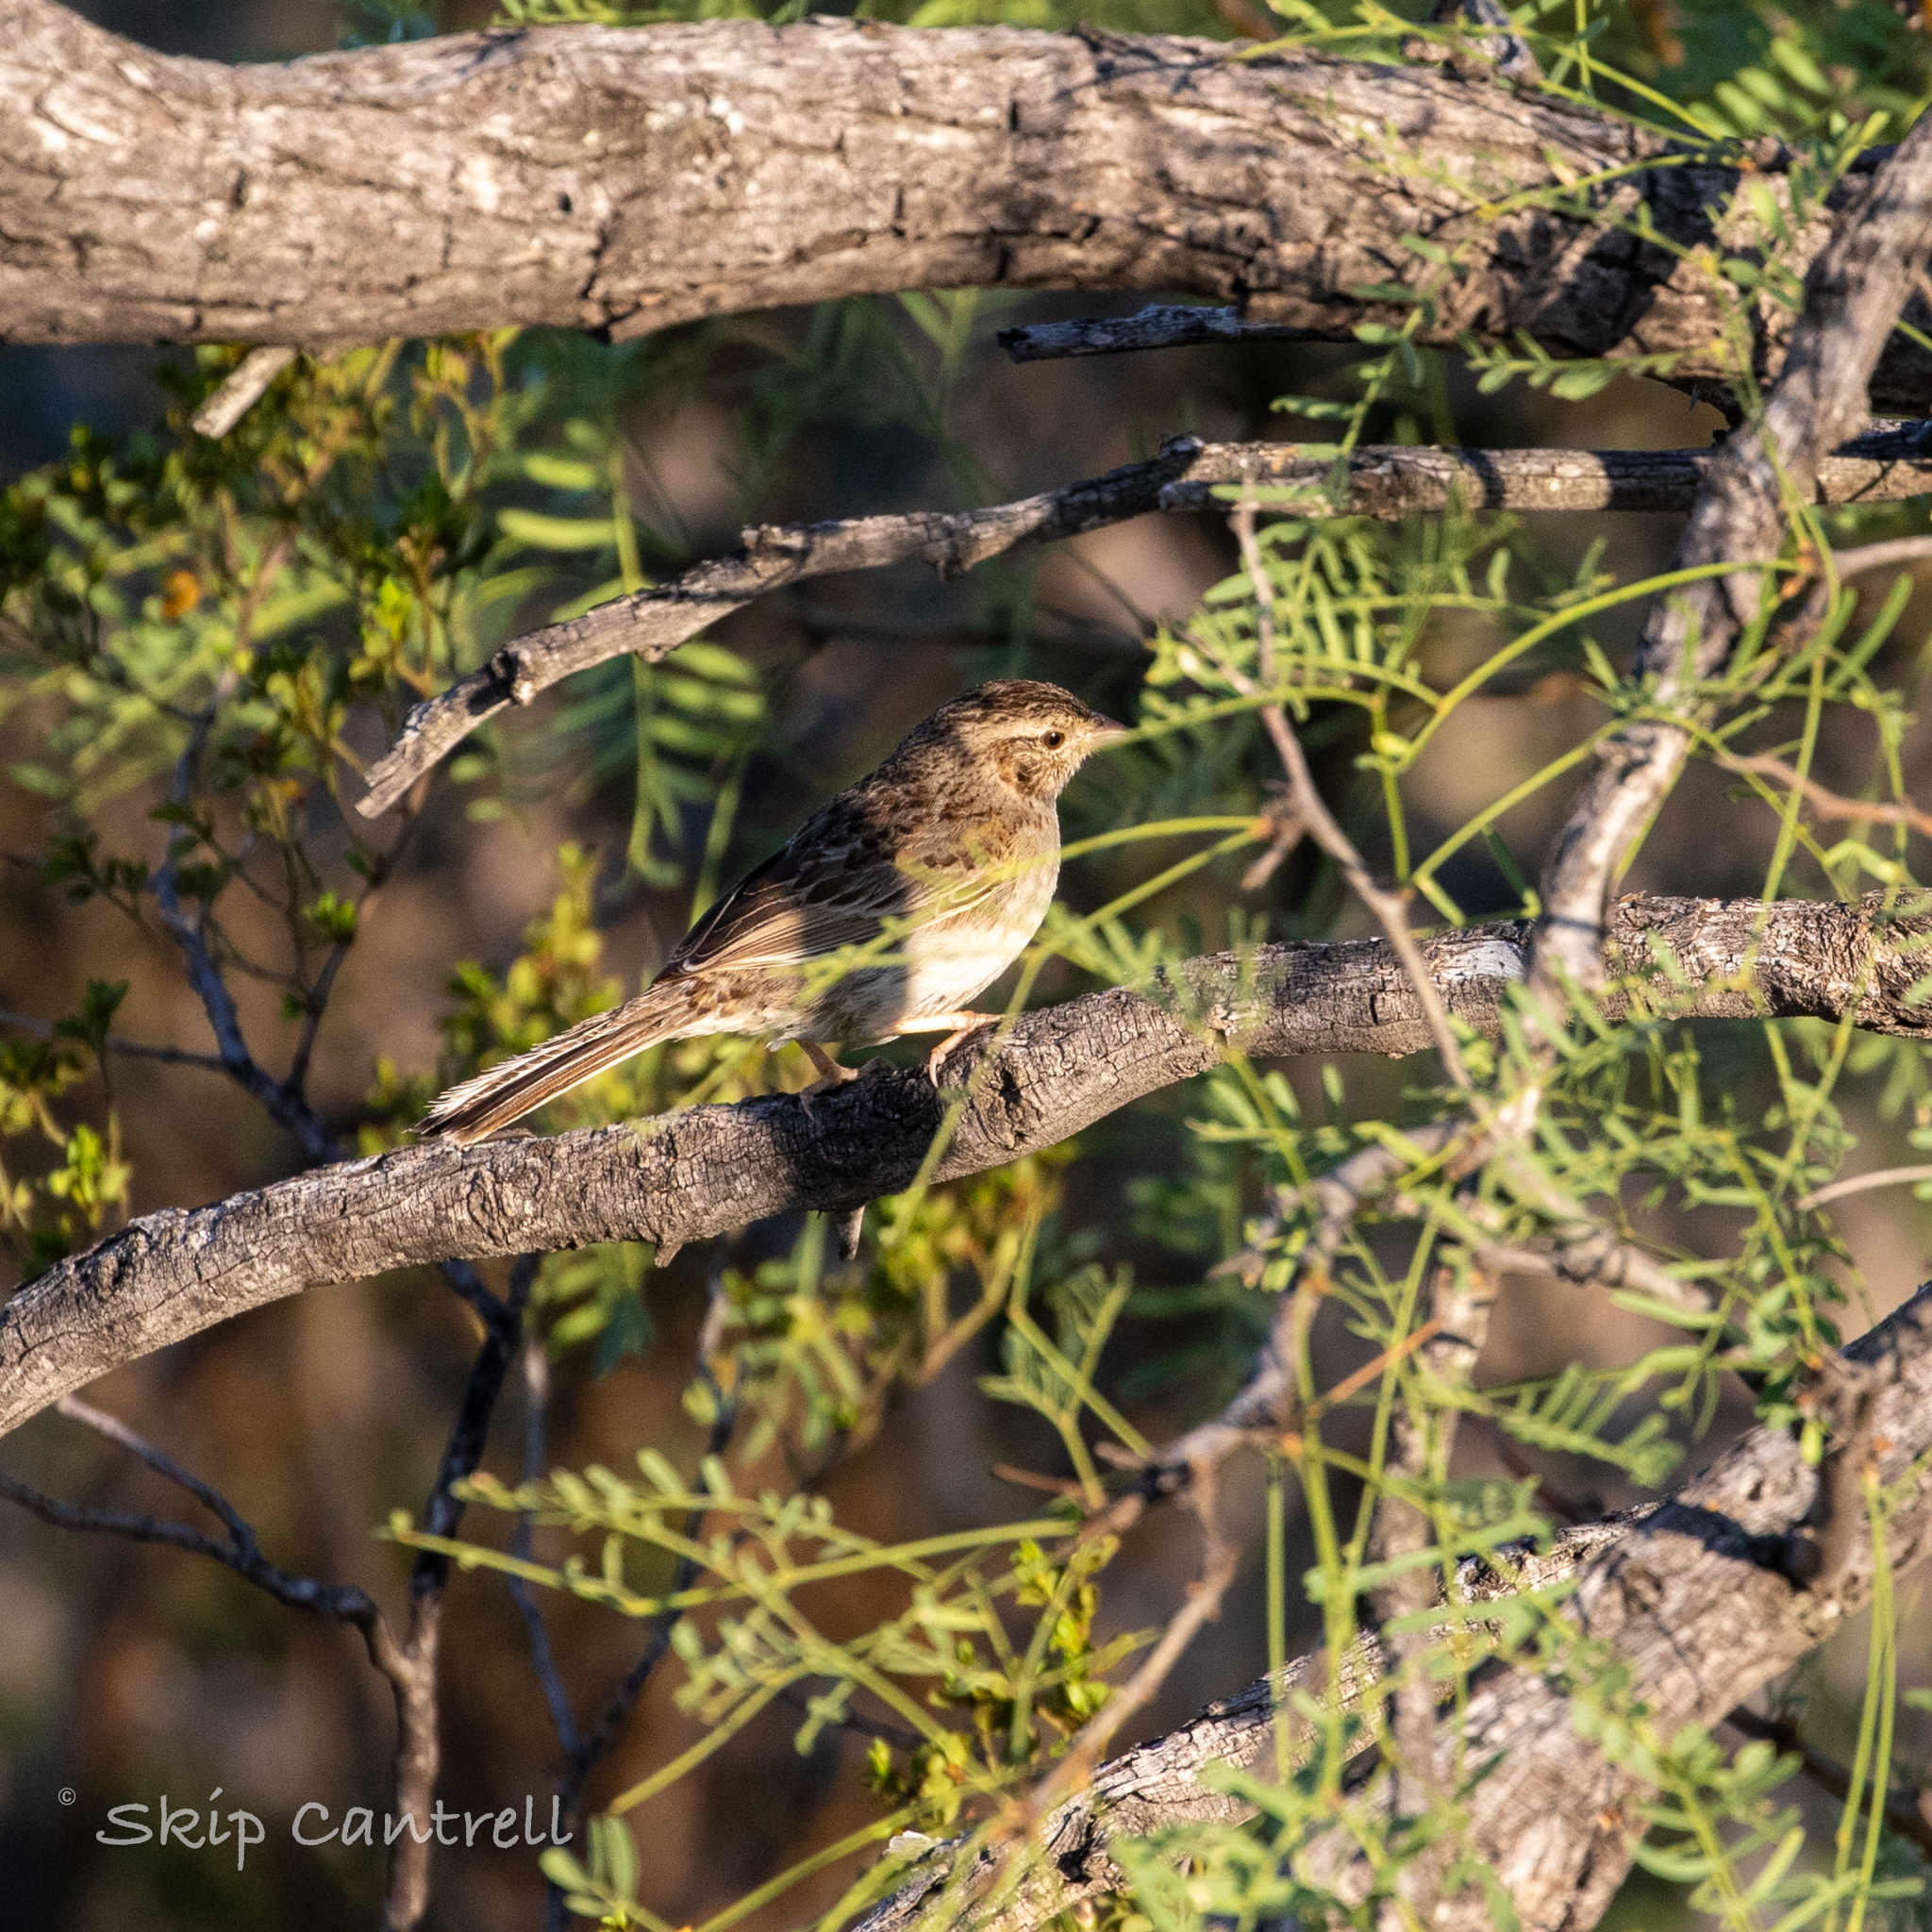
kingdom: Animalia
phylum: Chordata
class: Aves
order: Passeriformes
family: Passerellidae
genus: Peucaea
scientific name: Peucaea cassinii
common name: Cassin's sparrow
